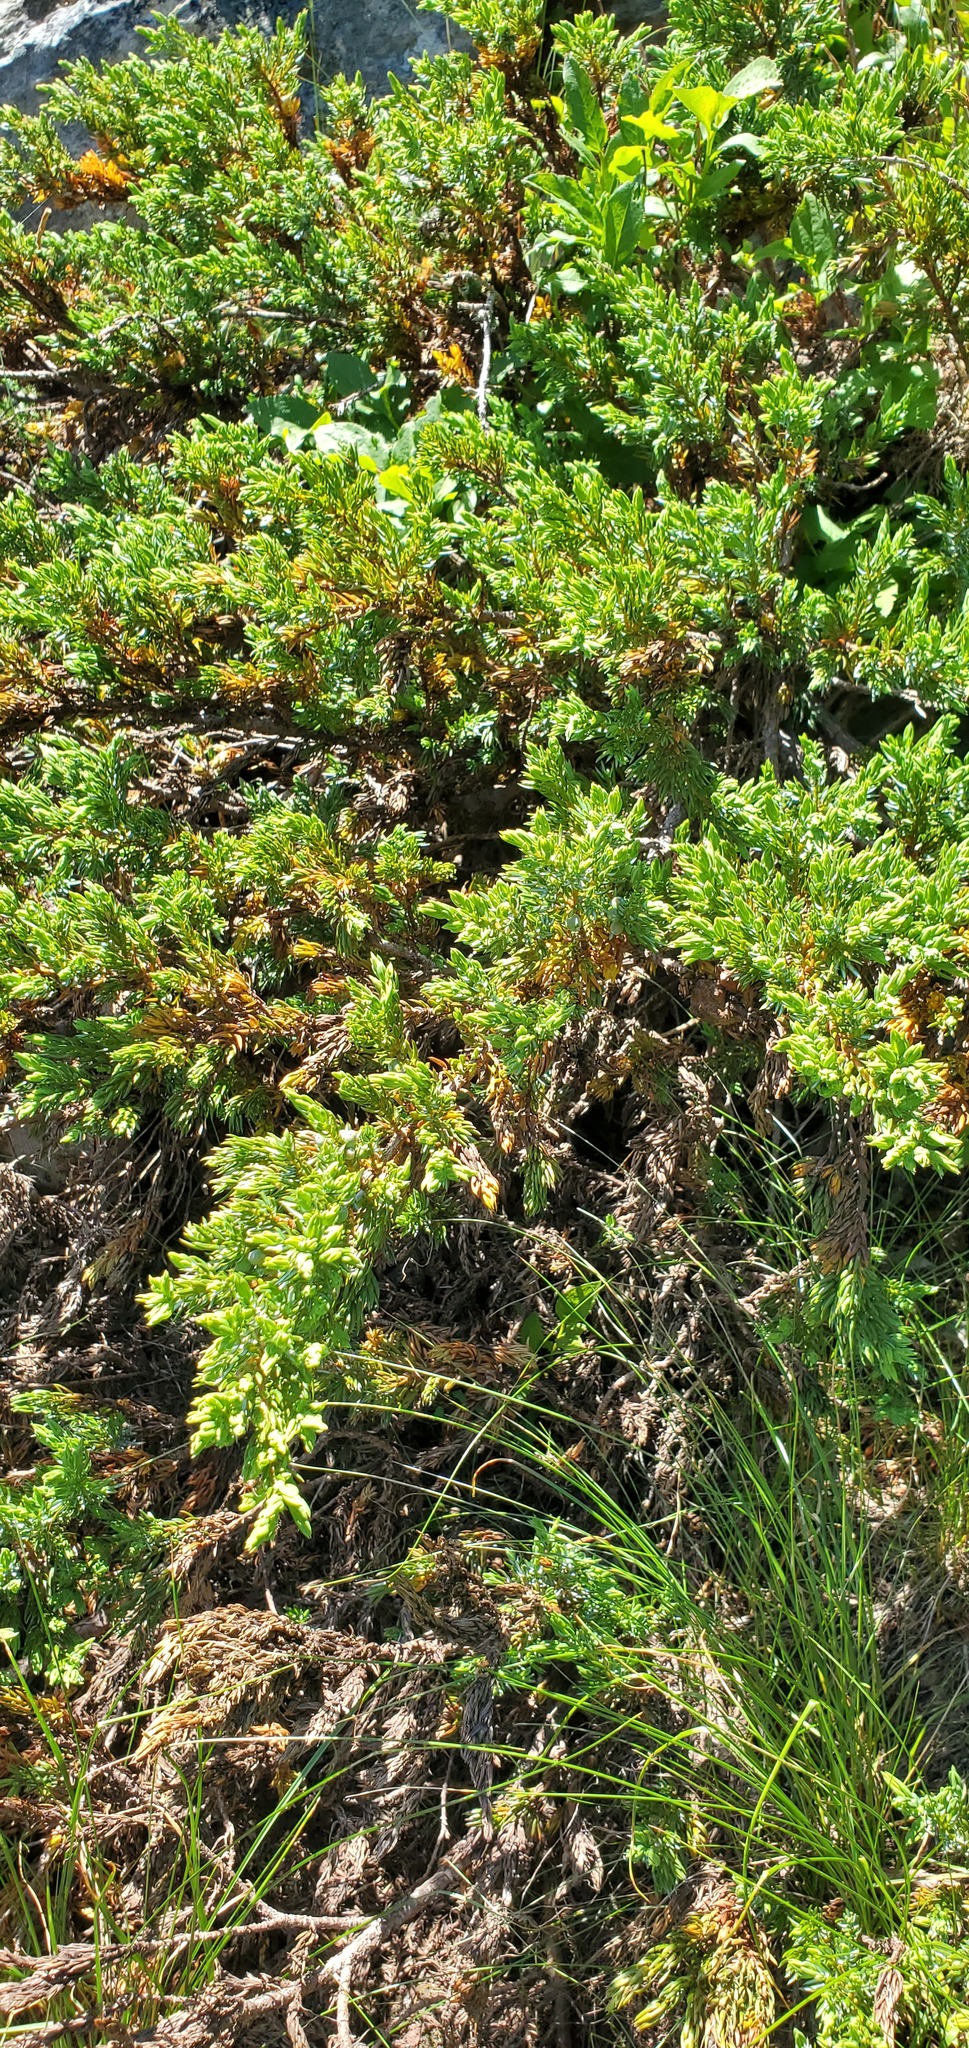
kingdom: Plantae
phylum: Tracheophyta
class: Pinopsida
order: Pinales
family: Cupressaceae
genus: Juniperus
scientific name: Juniperus communis
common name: Common juniper
